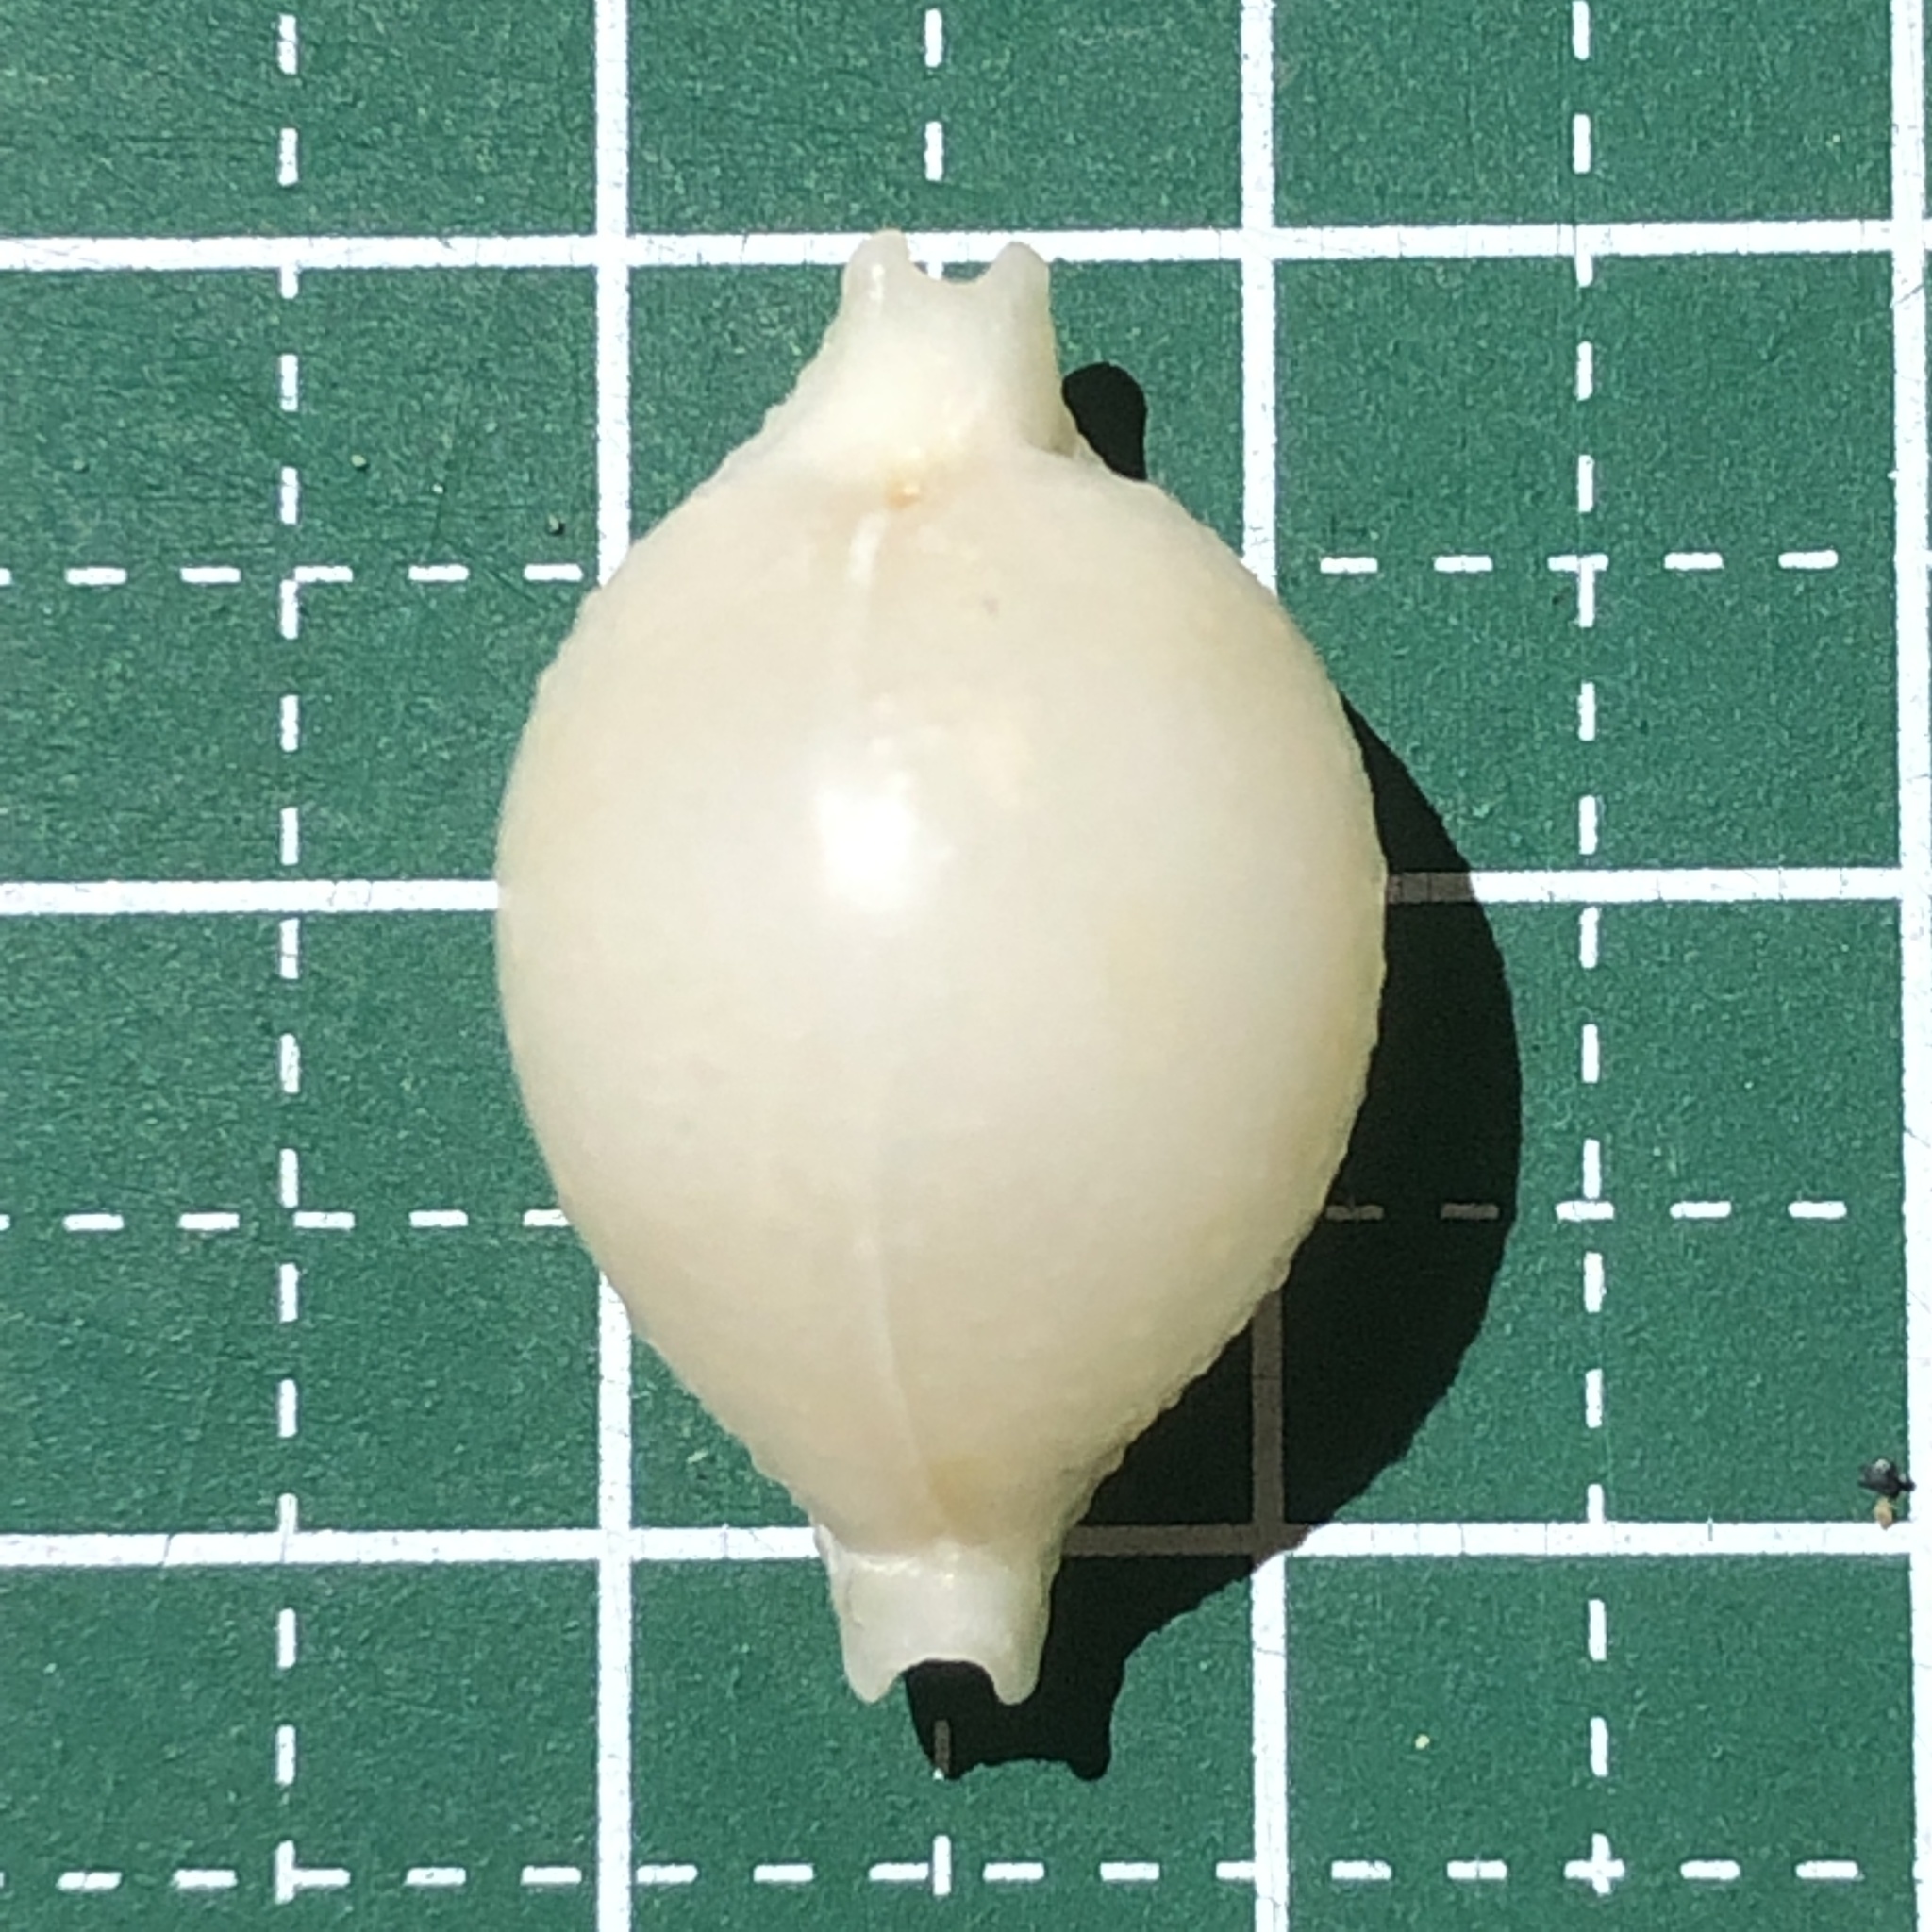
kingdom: Animalia
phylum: Mollusca
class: Gastropoda
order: Littorinimorpha
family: Cypraeidae
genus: Pustularia
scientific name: Pustularia cicercula
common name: Chick-pea cowrie
